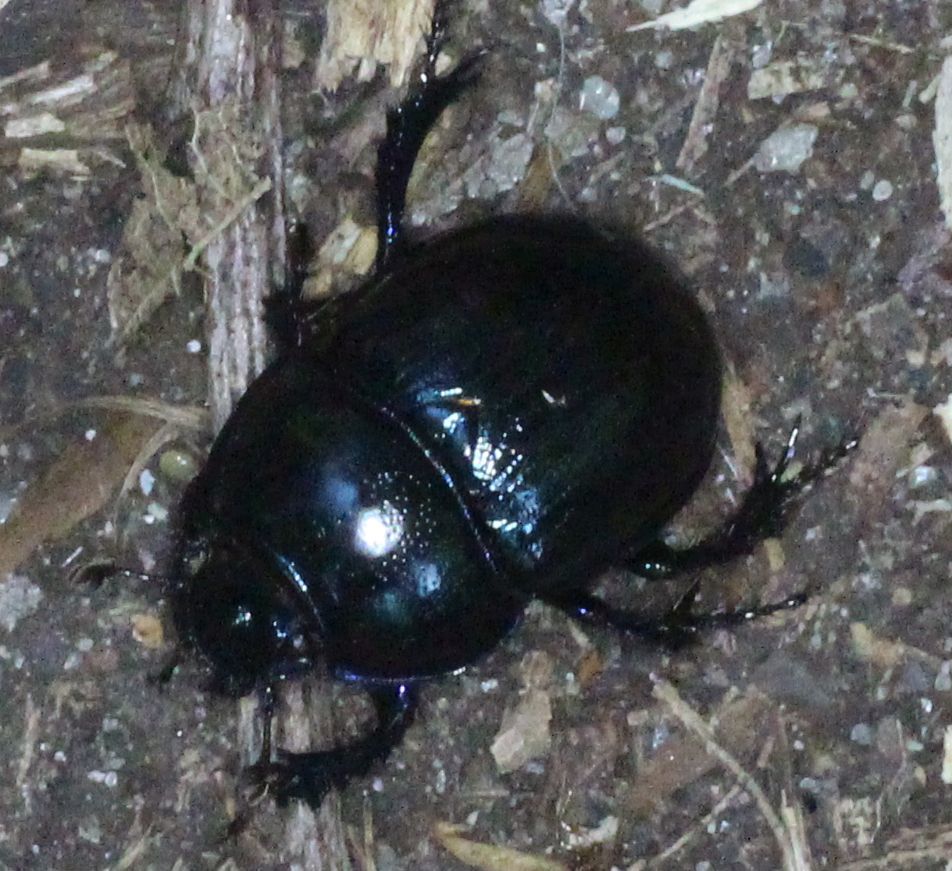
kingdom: Animalia
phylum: Arthropoda
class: Insecta
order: Coleoptera
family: Geotrupidae
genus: Anoplotrupes
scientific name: Anoplotrupes stercorosus
